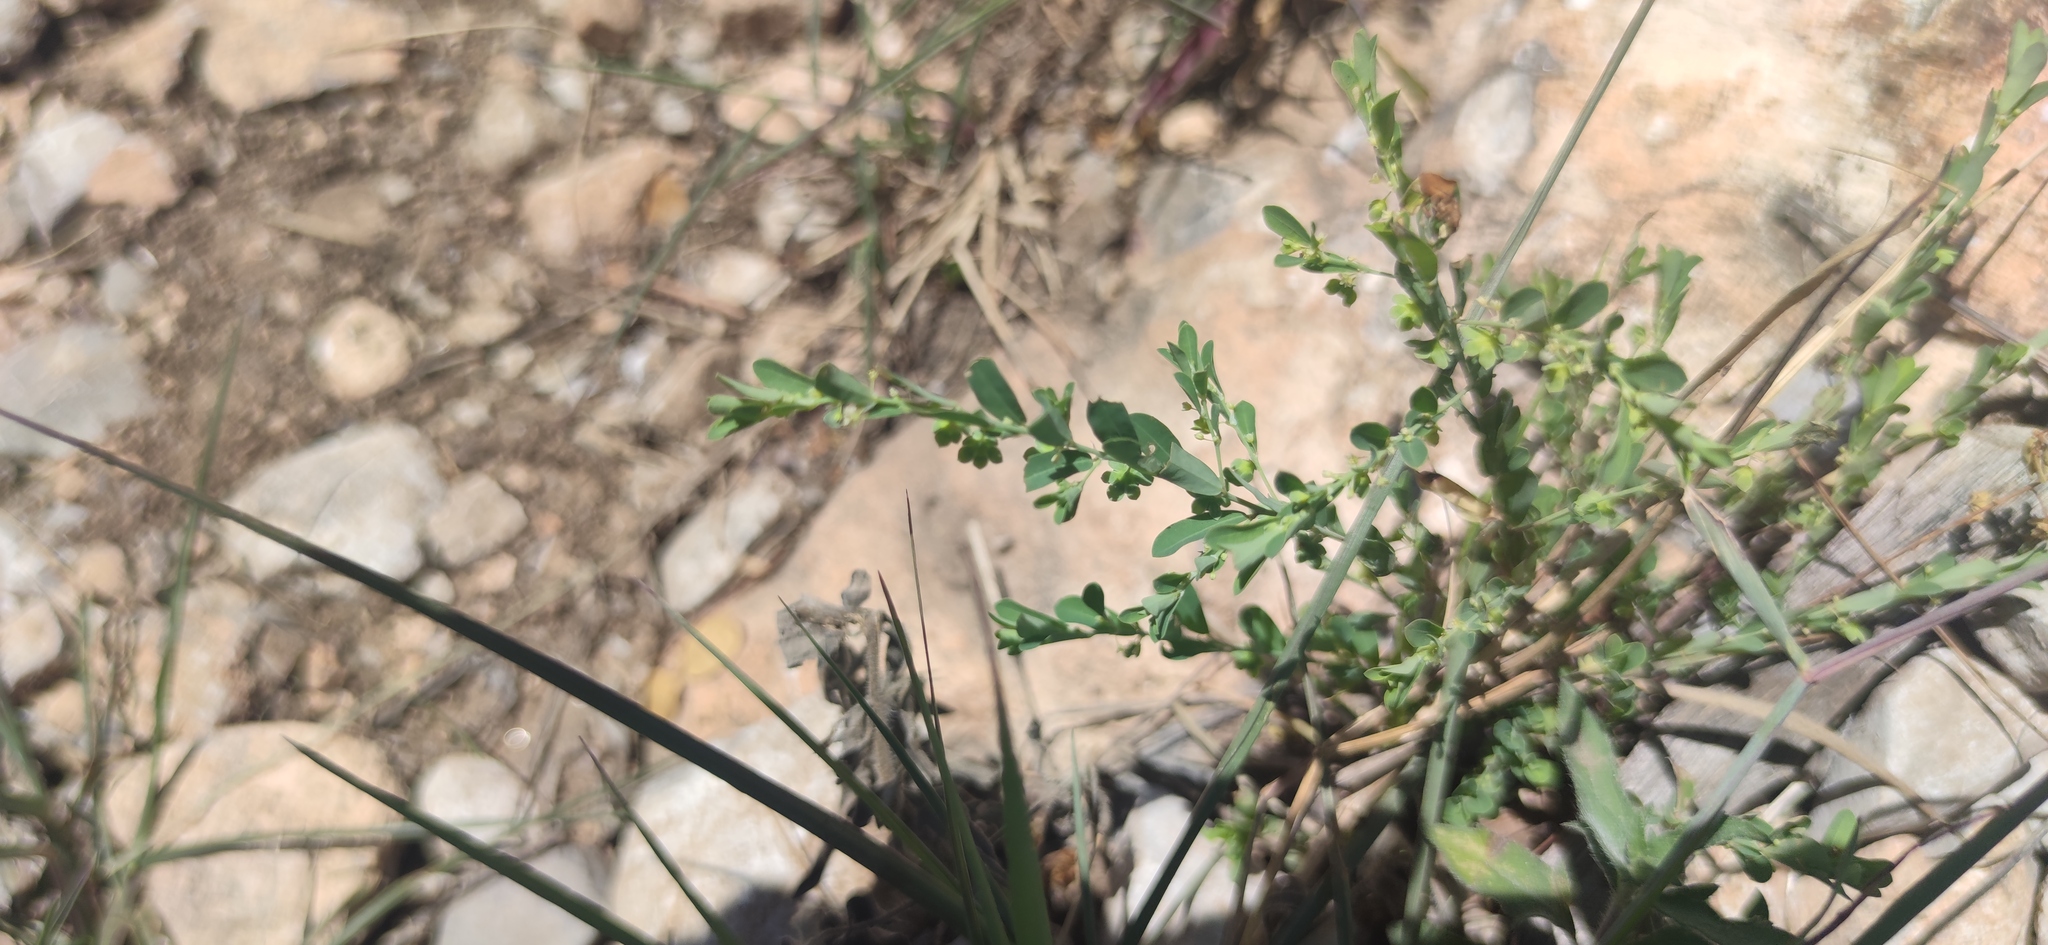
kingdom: Plantae
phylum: Tracheophyta
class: Magnoliopsida
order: Malpighiales
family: Phyllanthaceae
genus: Phyllanthus
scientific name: Phyllanthus polygonoides
